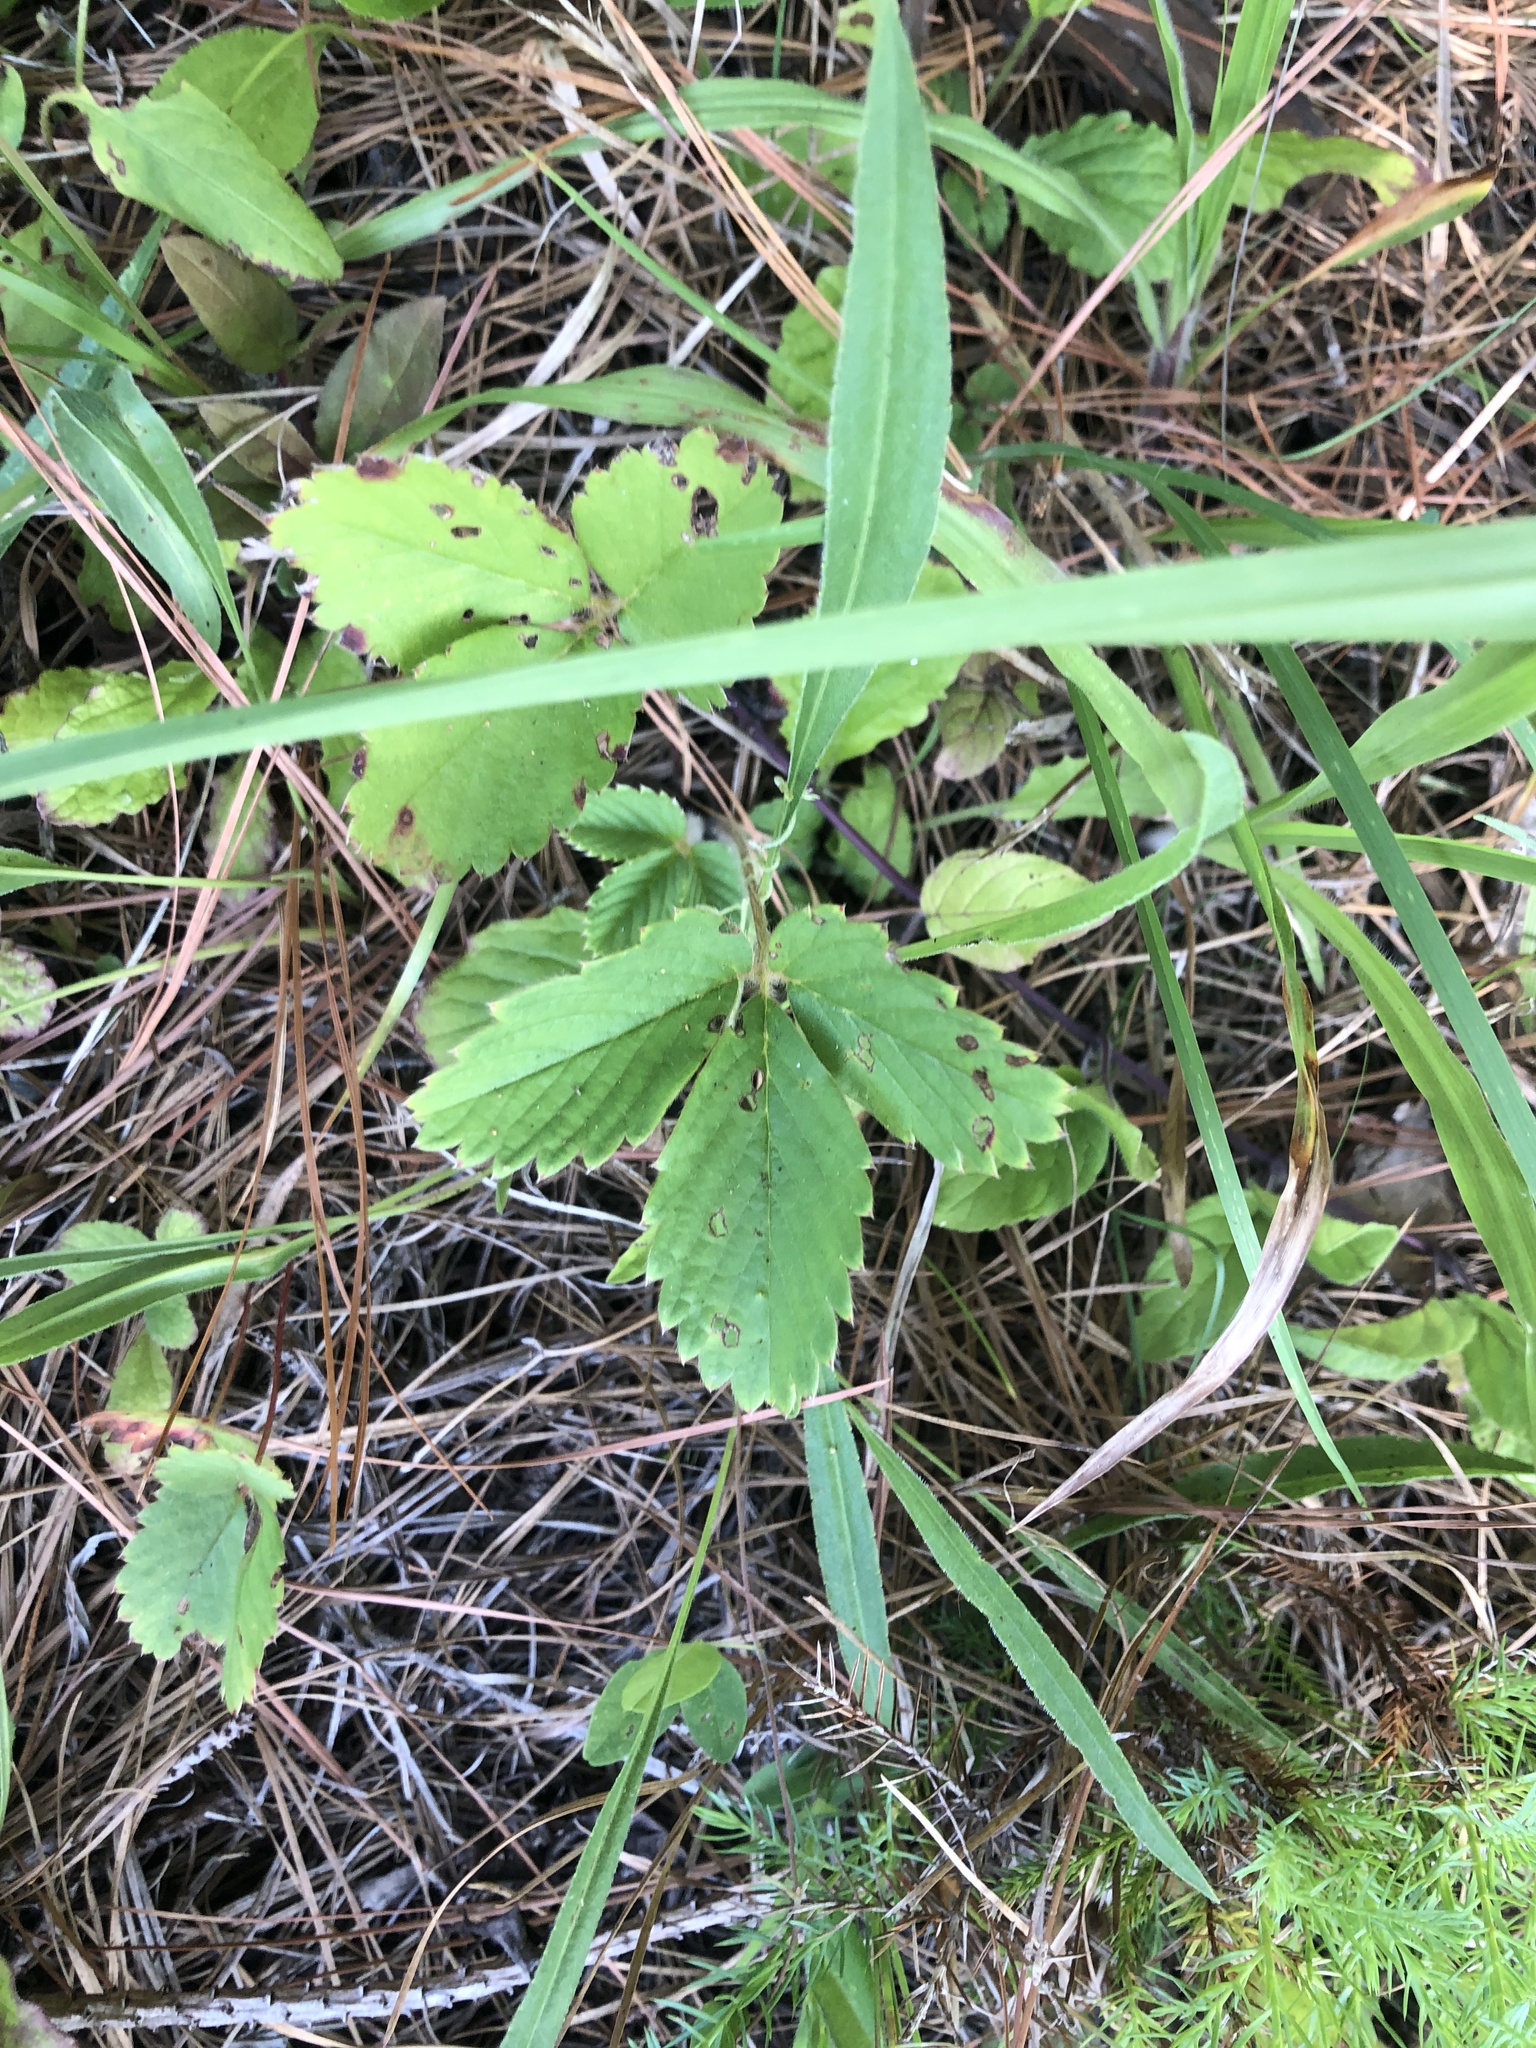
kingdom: Plantae
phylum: Tracheophyta
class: Magnoliopsida
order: Rosales
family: Rosaceae
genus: Fragaria
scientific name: Fragaria virginiana
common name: Thickleaved wild strawberry
